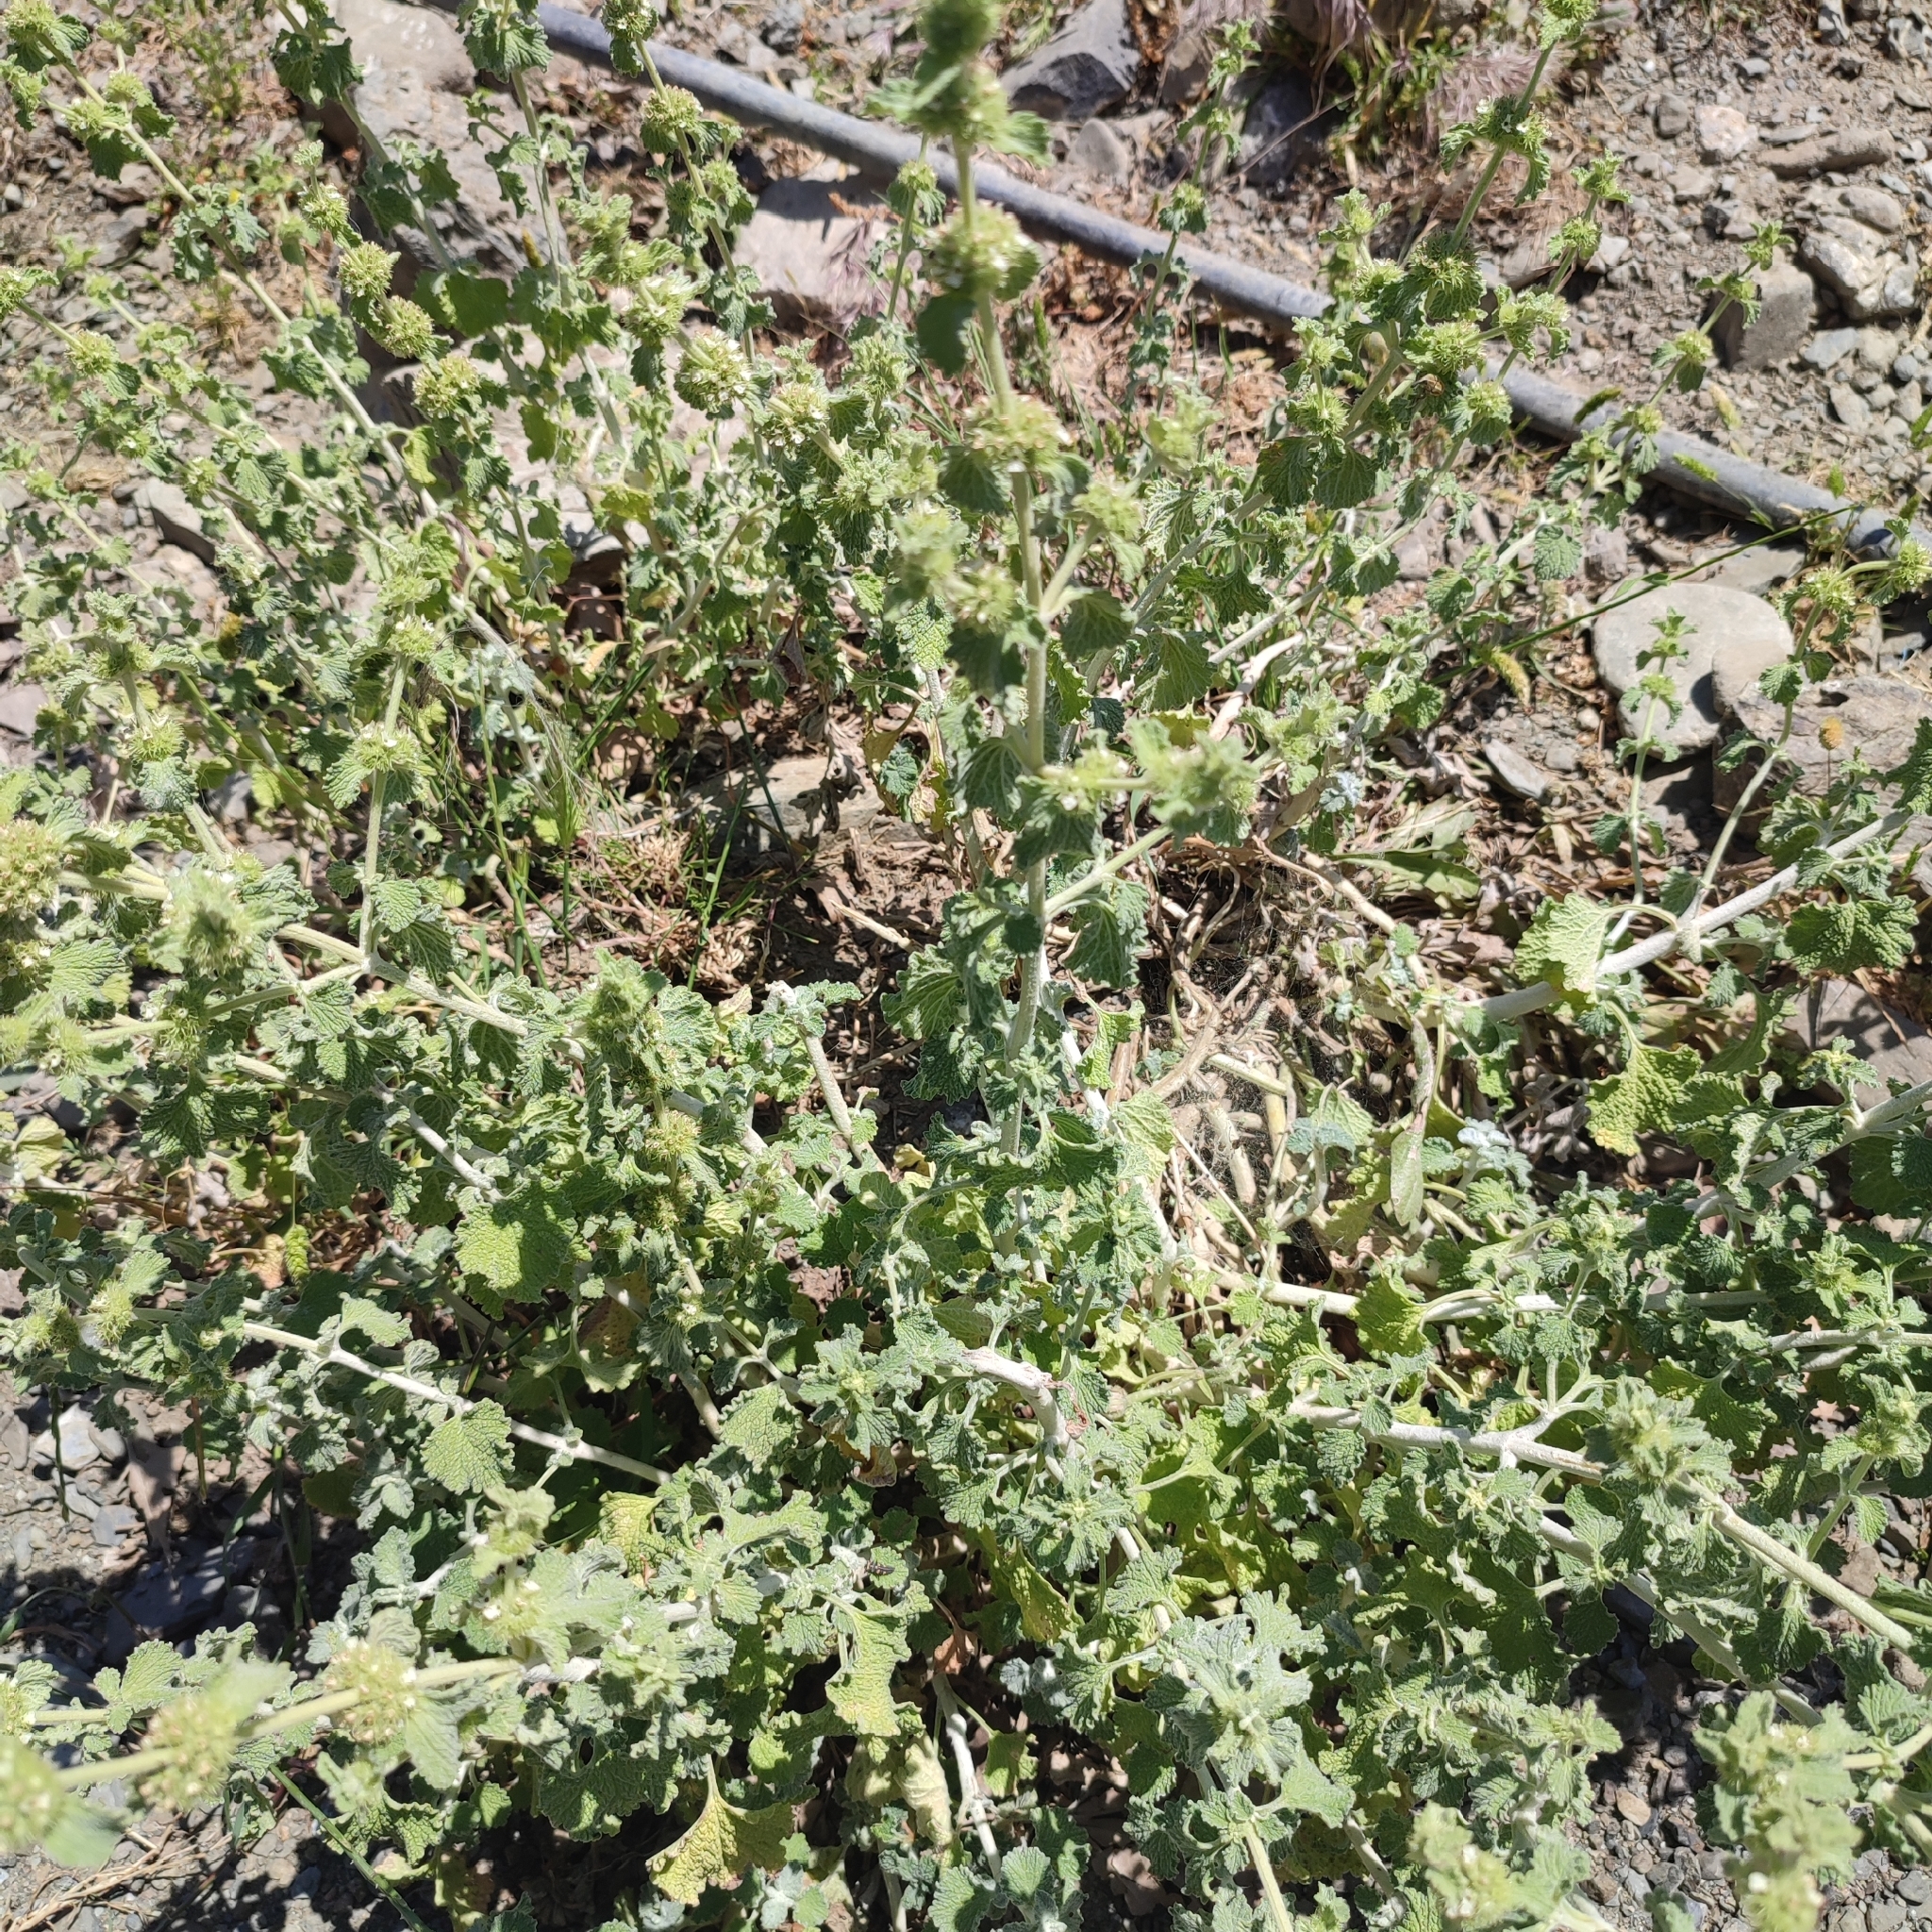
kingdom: Plantae
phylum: Tracheophyta
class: Magnoliopsida
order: Lamiales
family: Lamiaceae
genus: Marrubium
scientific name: Marrubium vulgare
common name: Horehound
